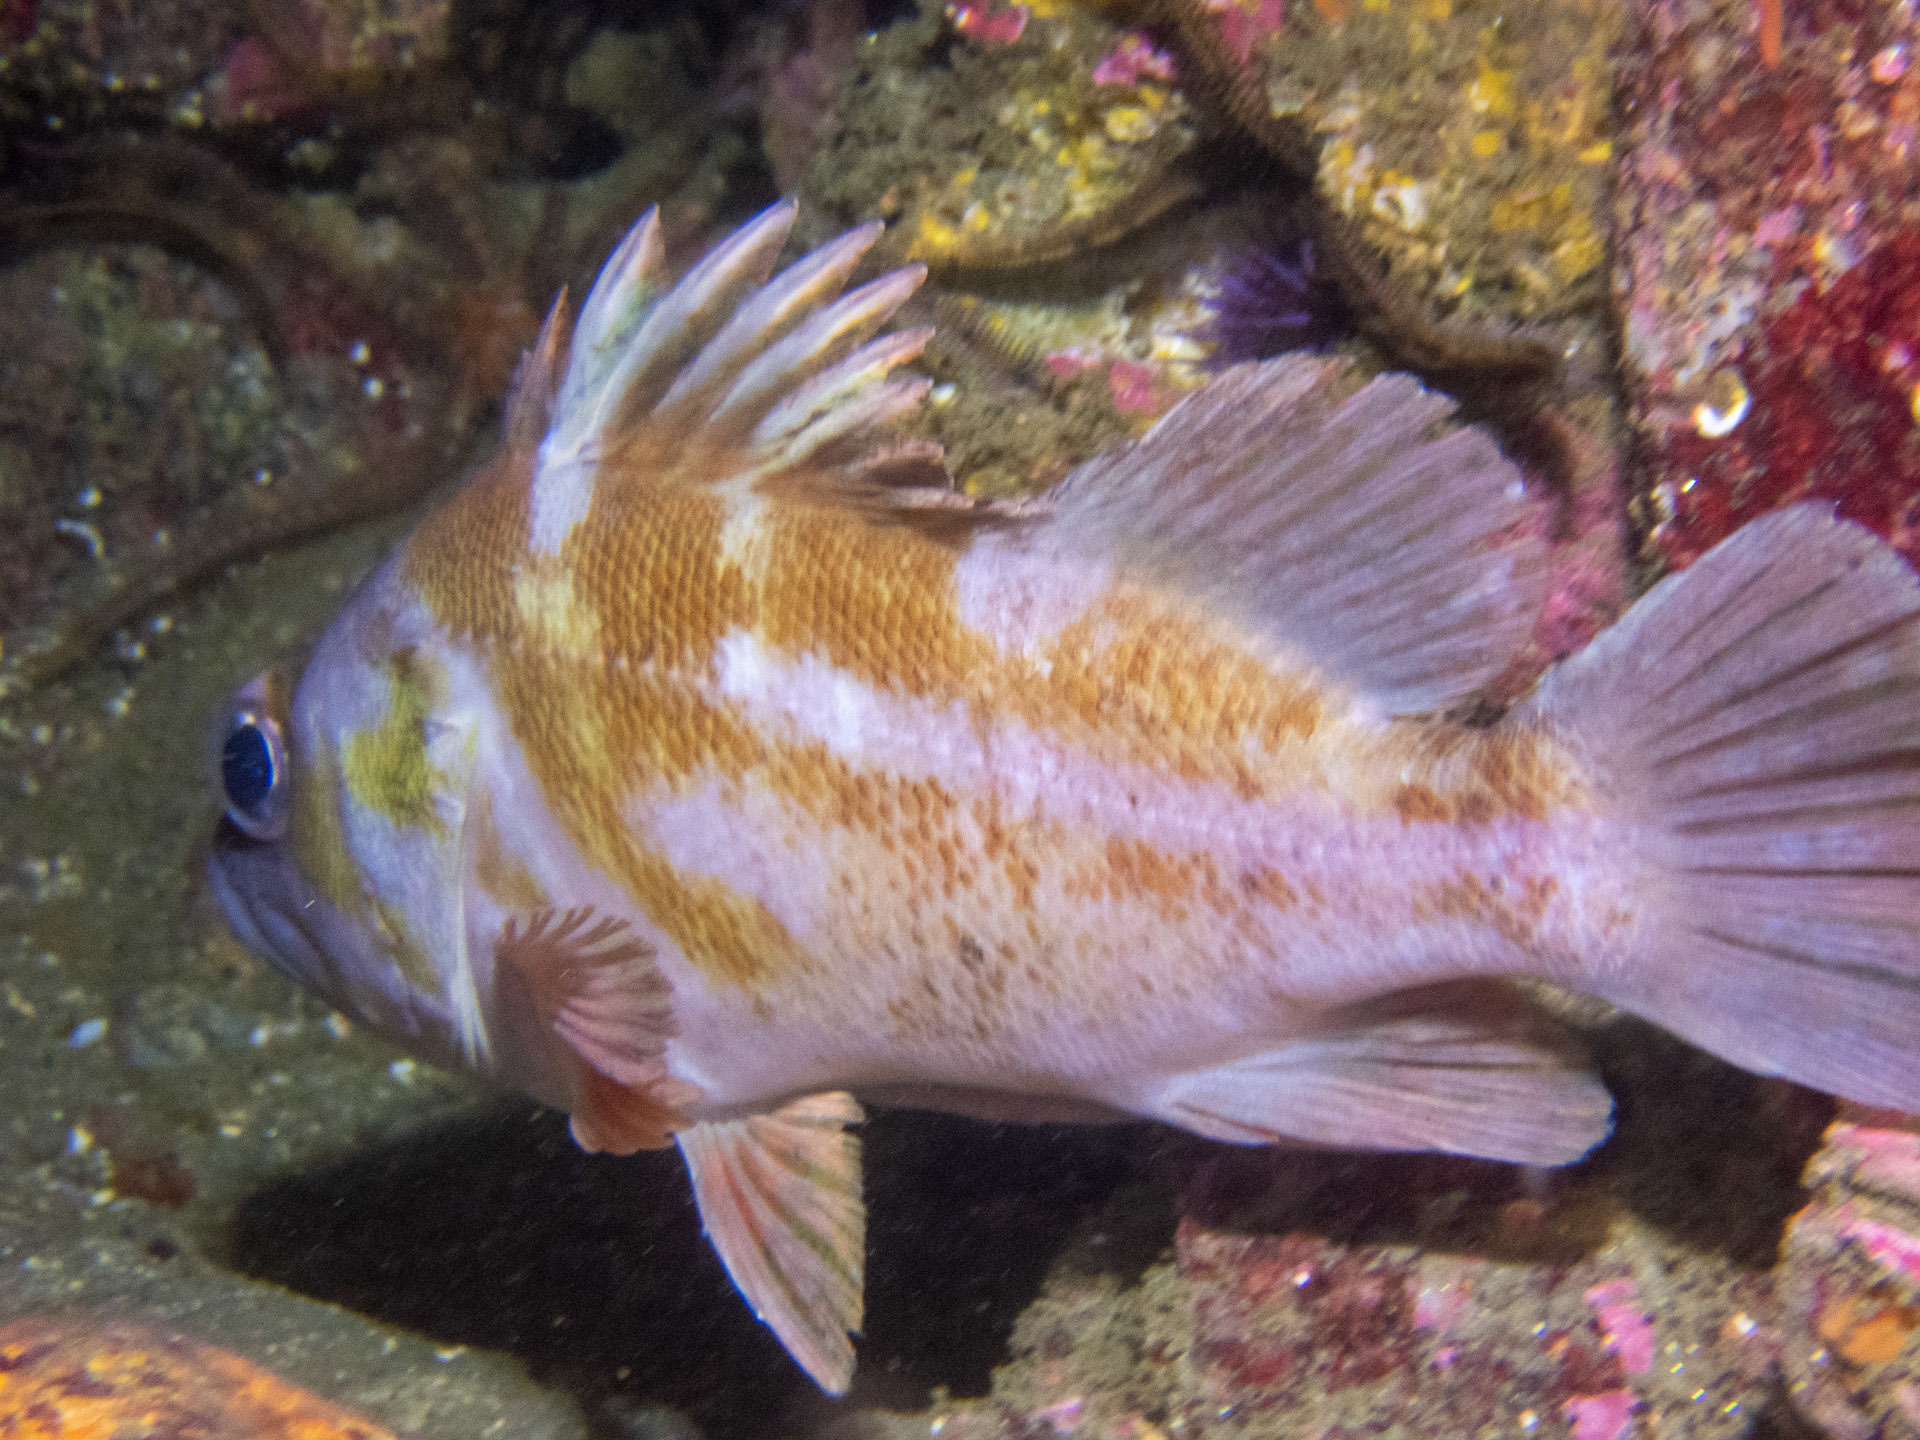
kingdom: Animalia
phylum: Chordata
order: Scorpaeniformes
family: Sebastidae
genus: Sebastes
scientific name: Sebastes caurinus
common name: Copper rockfish
